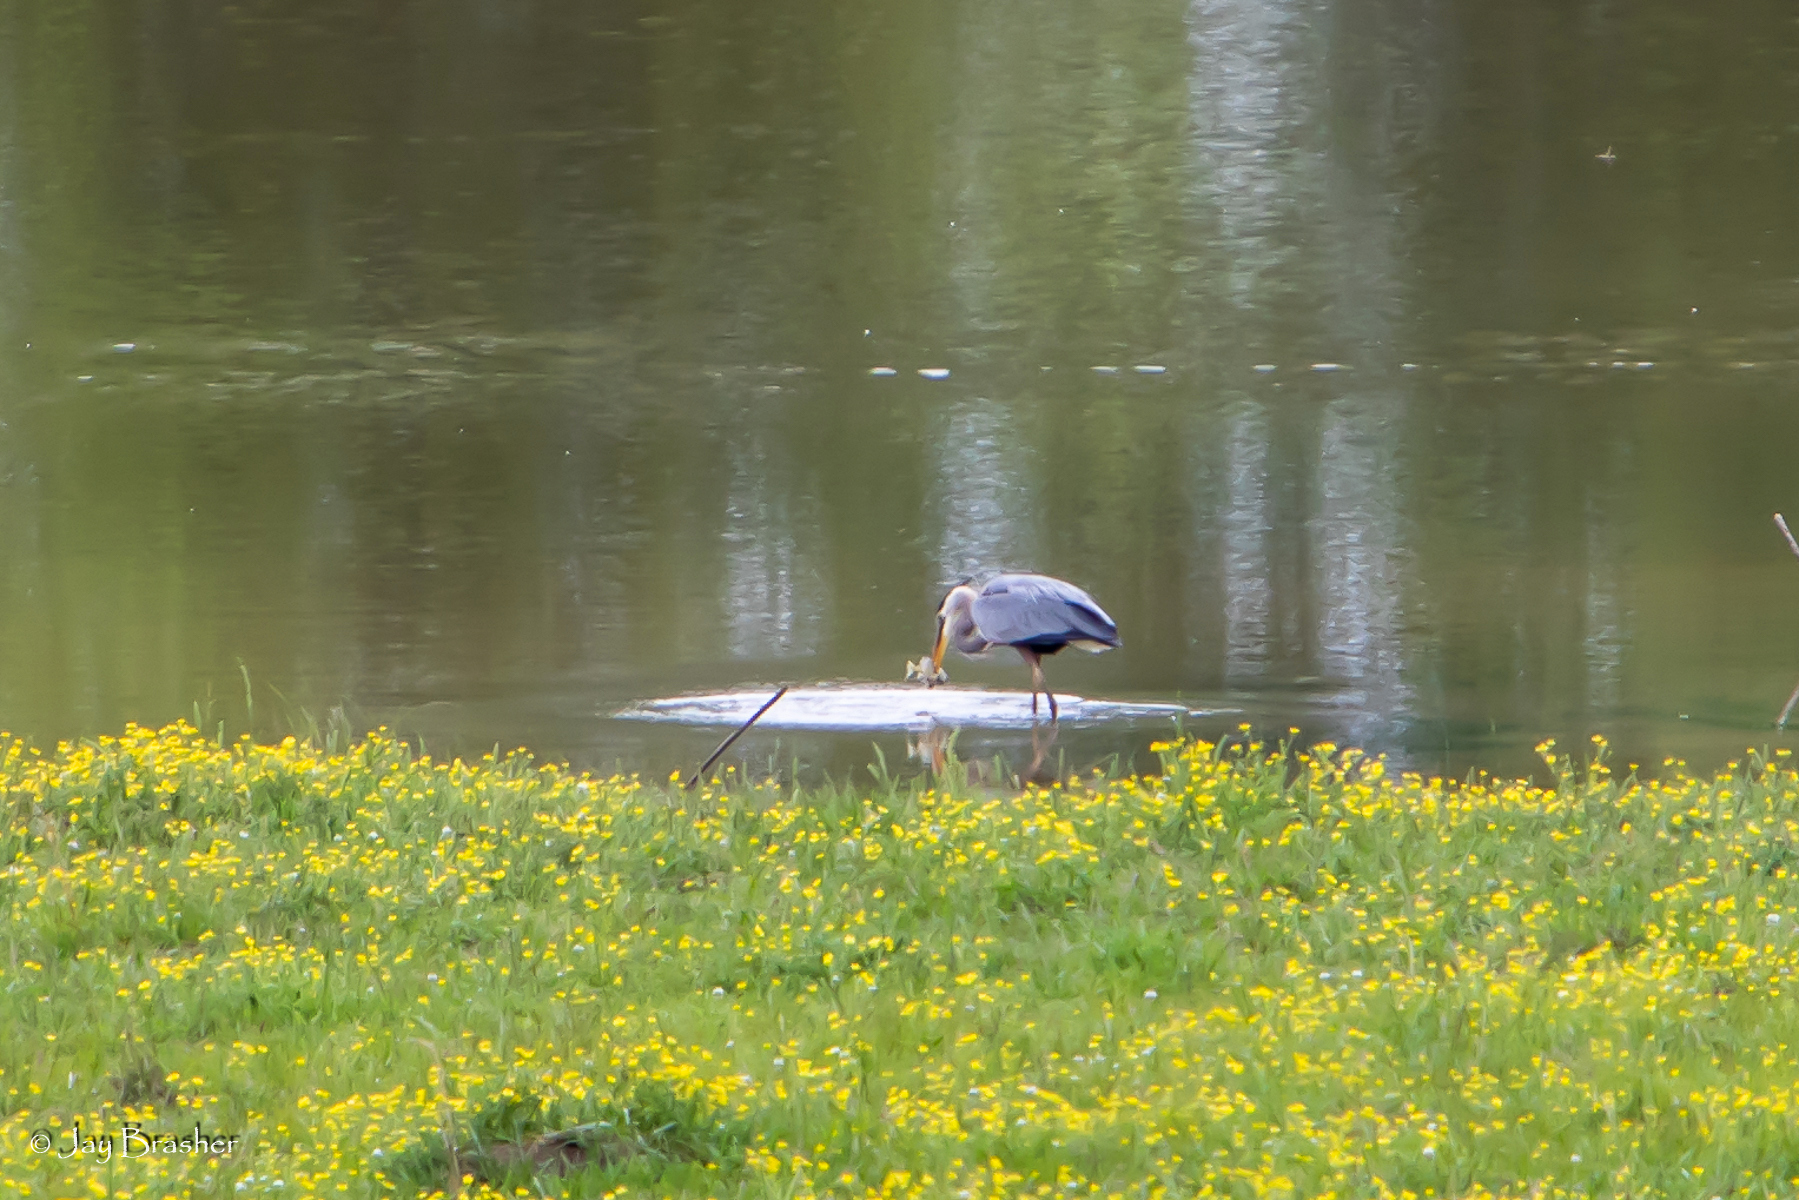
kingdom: Animalia
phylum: Chordata
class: Aves
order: Pelecaniformes
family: Ardeidae
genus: Ardea
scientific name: Ardea herodias
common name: Great blue heron
